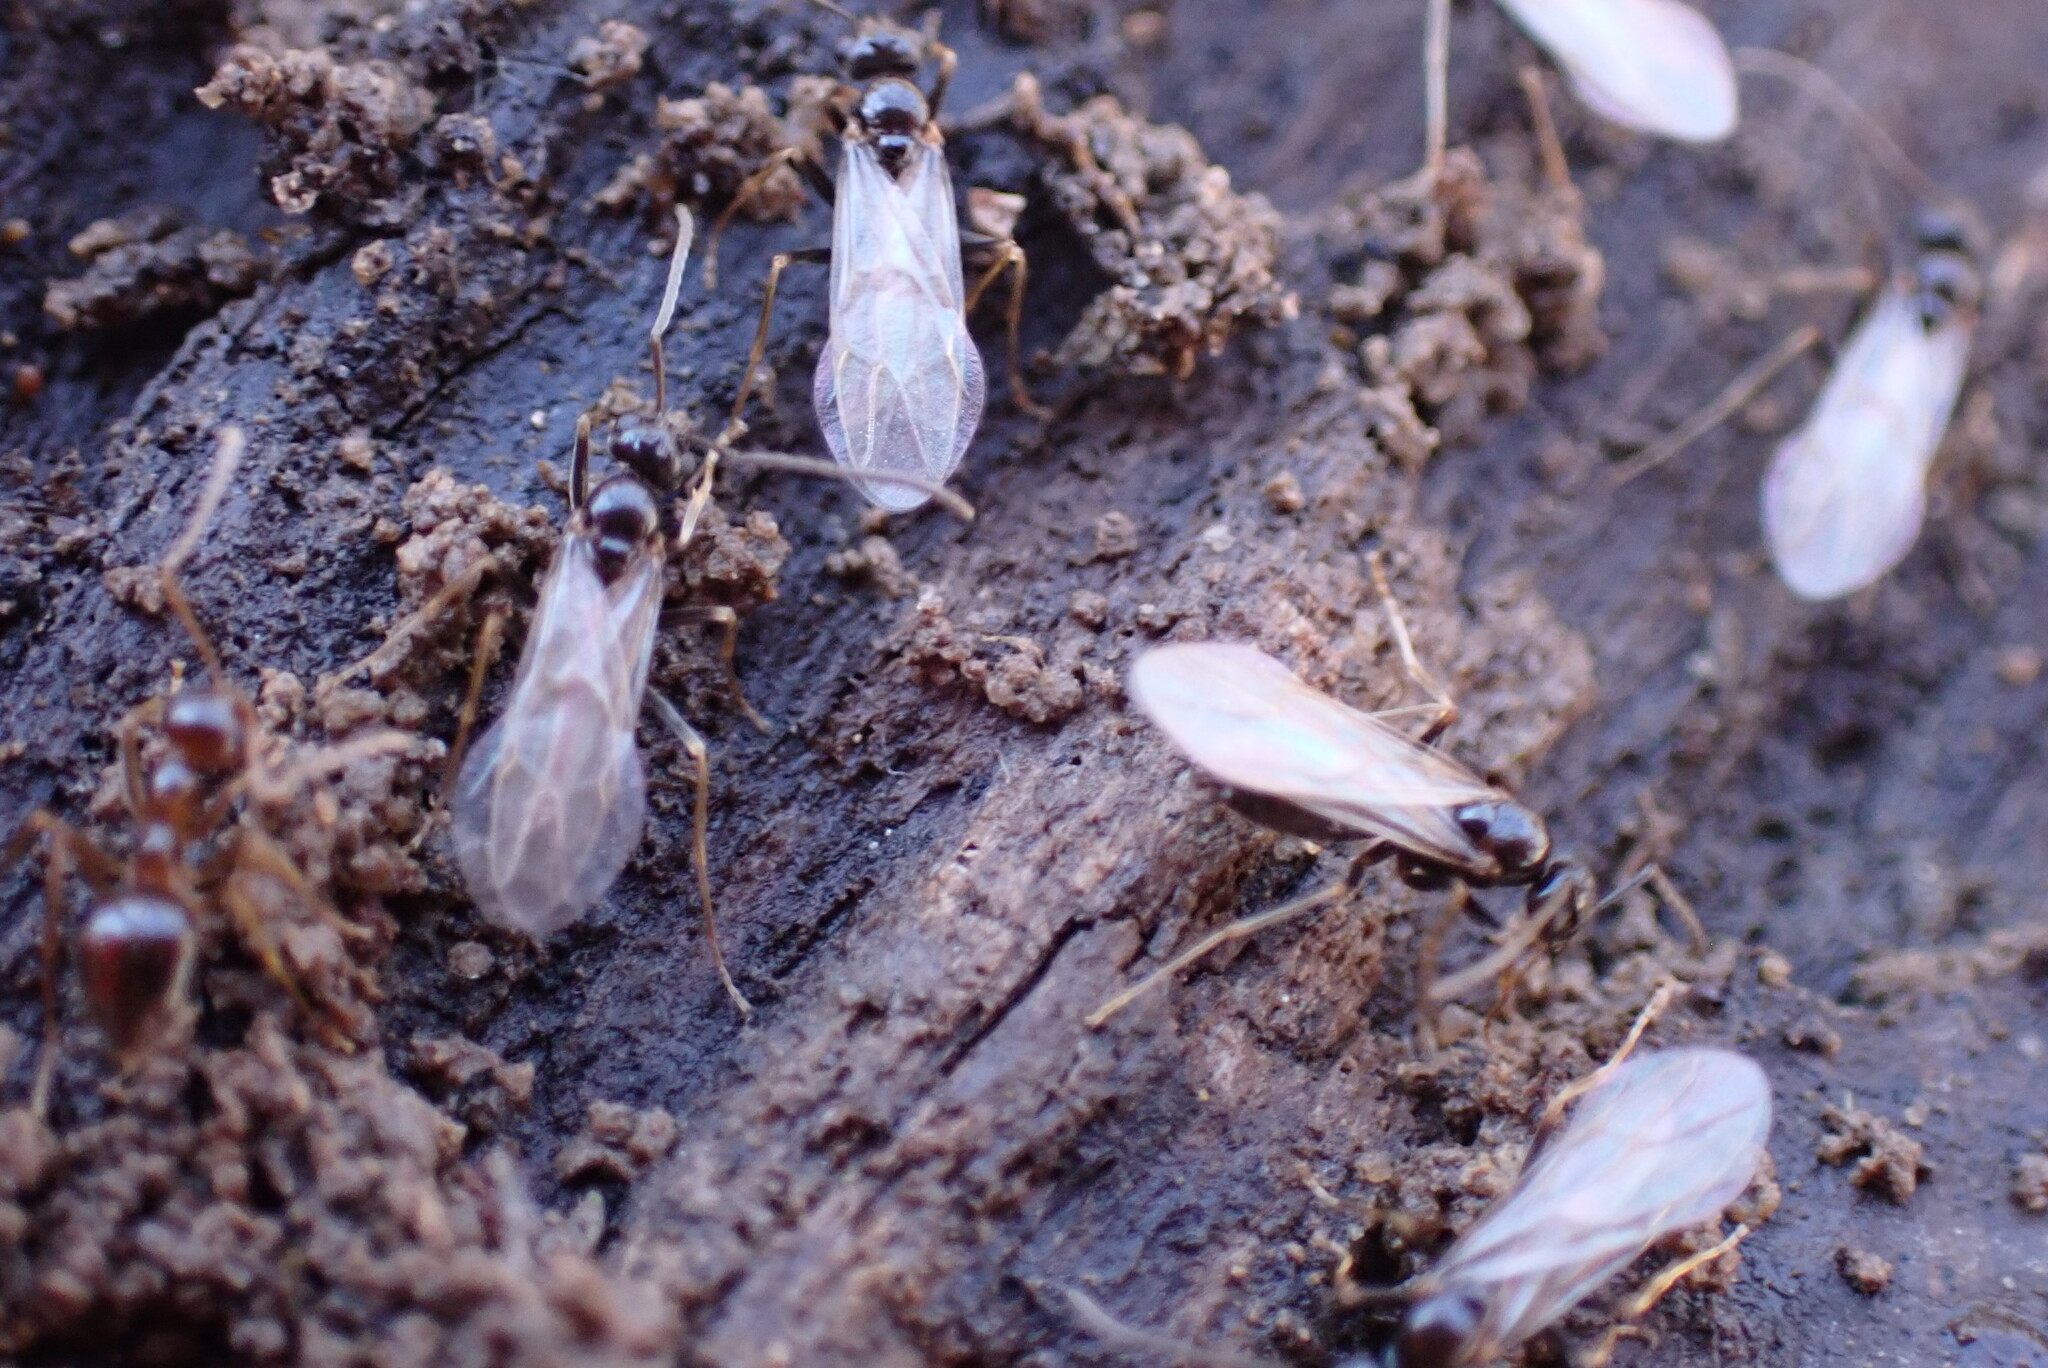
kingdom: Animalia
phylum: Arthropoda
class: Insecta
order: Hymenoptera
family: Formicidae
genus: Prenolepis
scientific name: Prenolepis imparis
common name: Small honey ant
